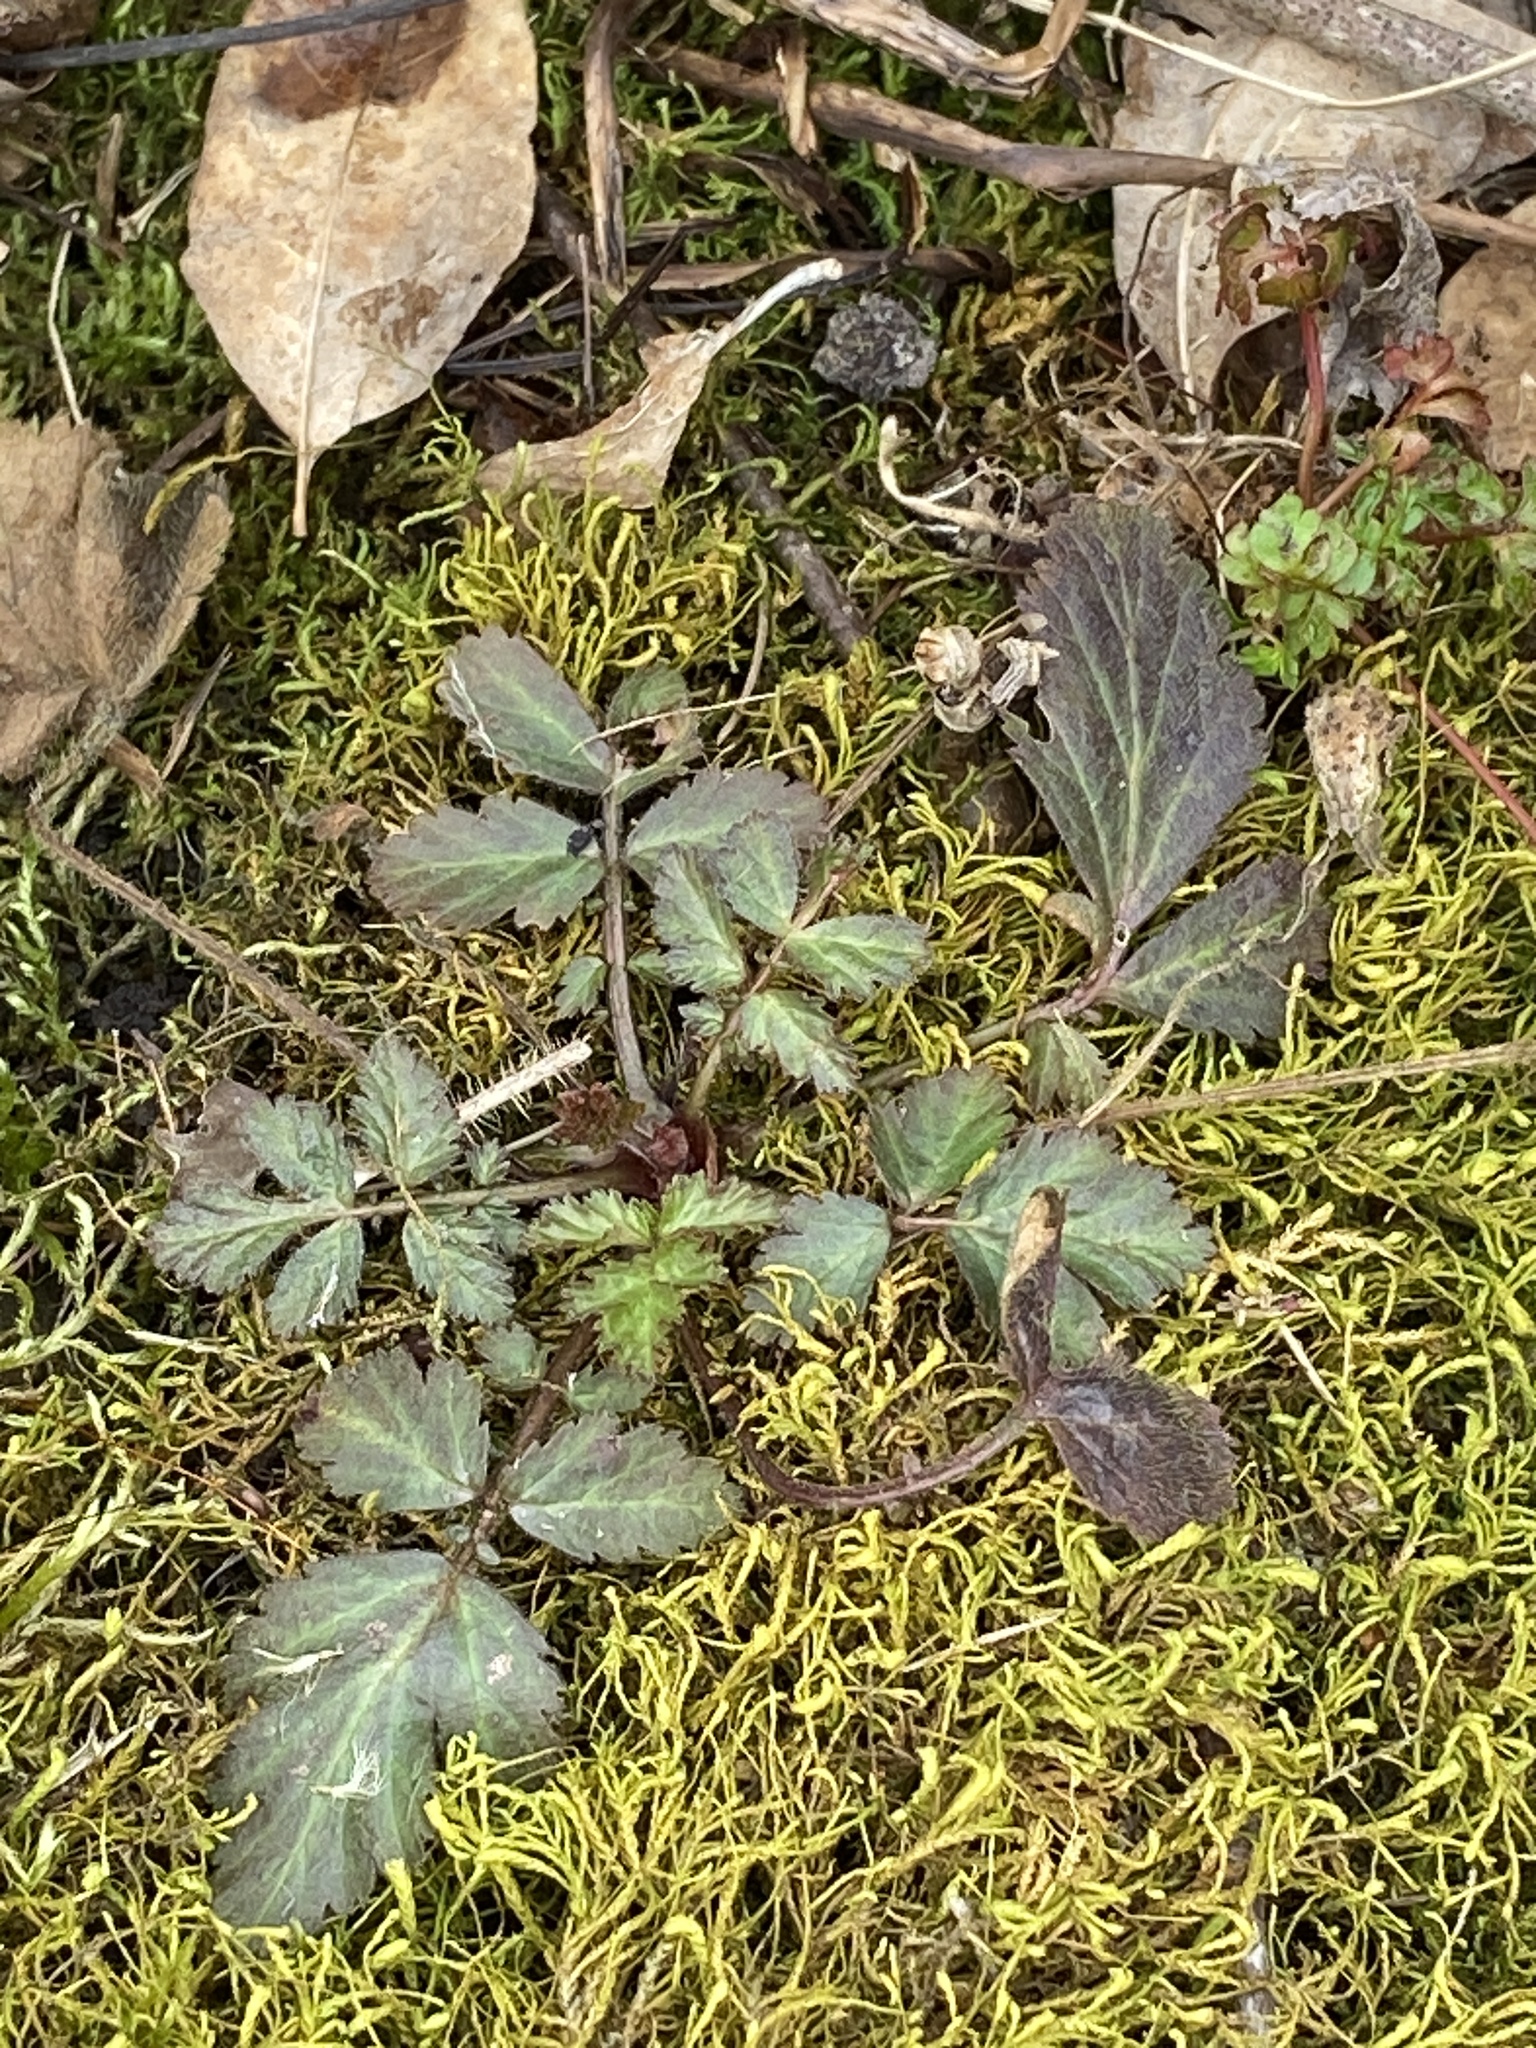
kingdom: Plantae
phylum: Tracheophyta
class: Magnoliopsida
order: Rosales
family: Rosaceae
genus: Geum
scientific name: Geum canadense
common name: White avens
